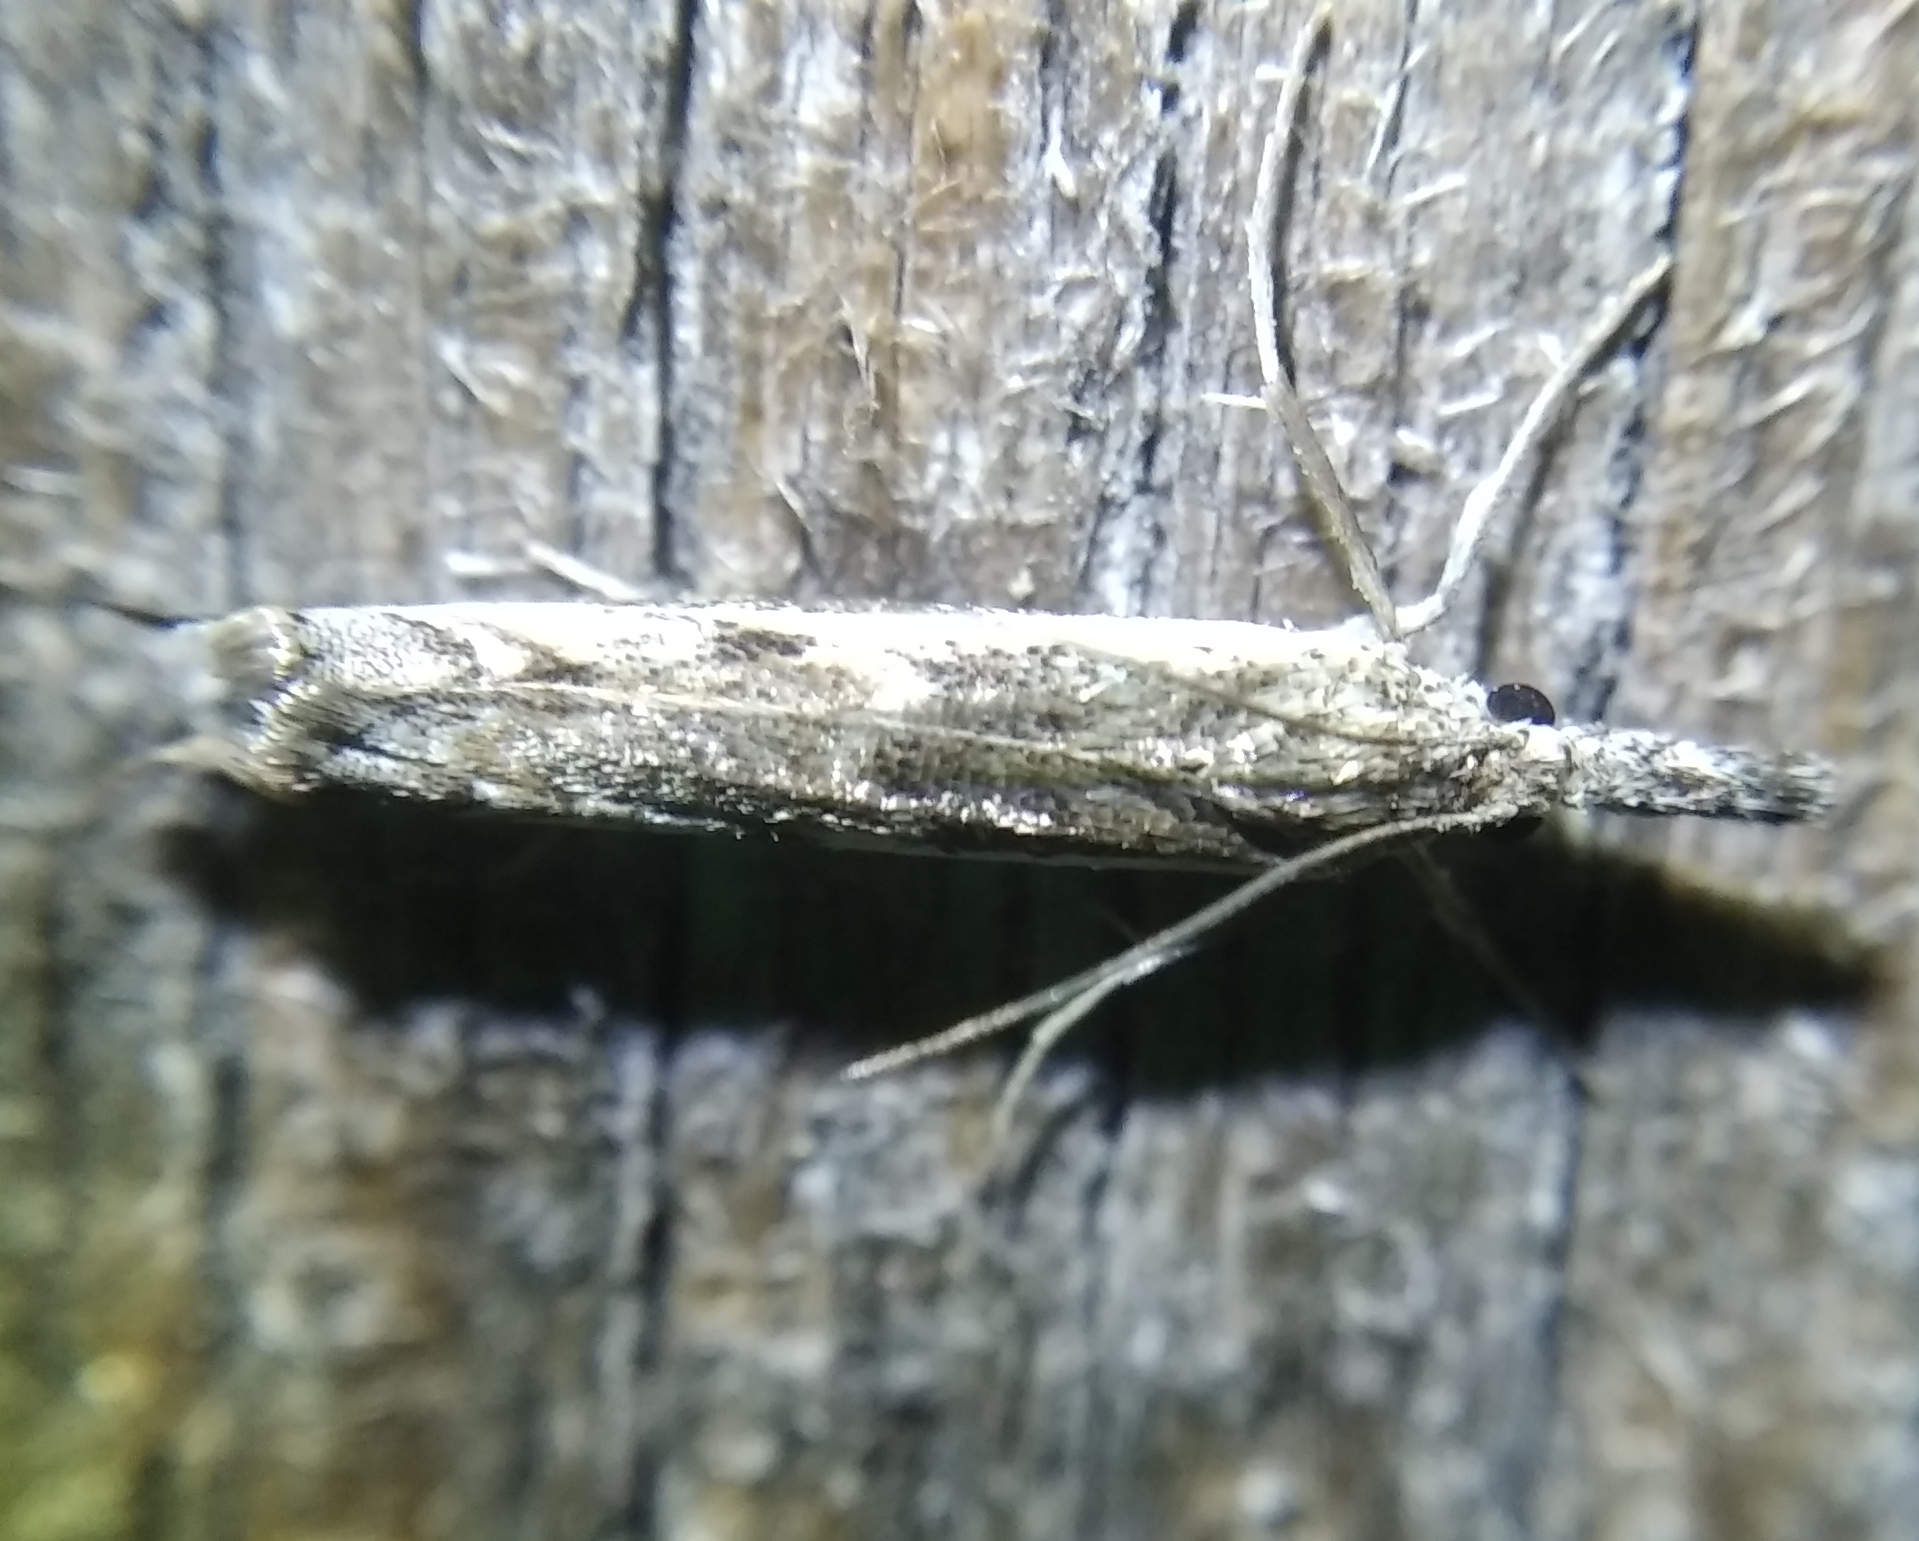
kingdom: Animalia
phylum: Arthropoda
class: Insecta
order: Lepidoptera
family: Crambidae
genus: Platytes
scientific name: Platytes alpinella
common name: Hook-tipped grass-veneer
